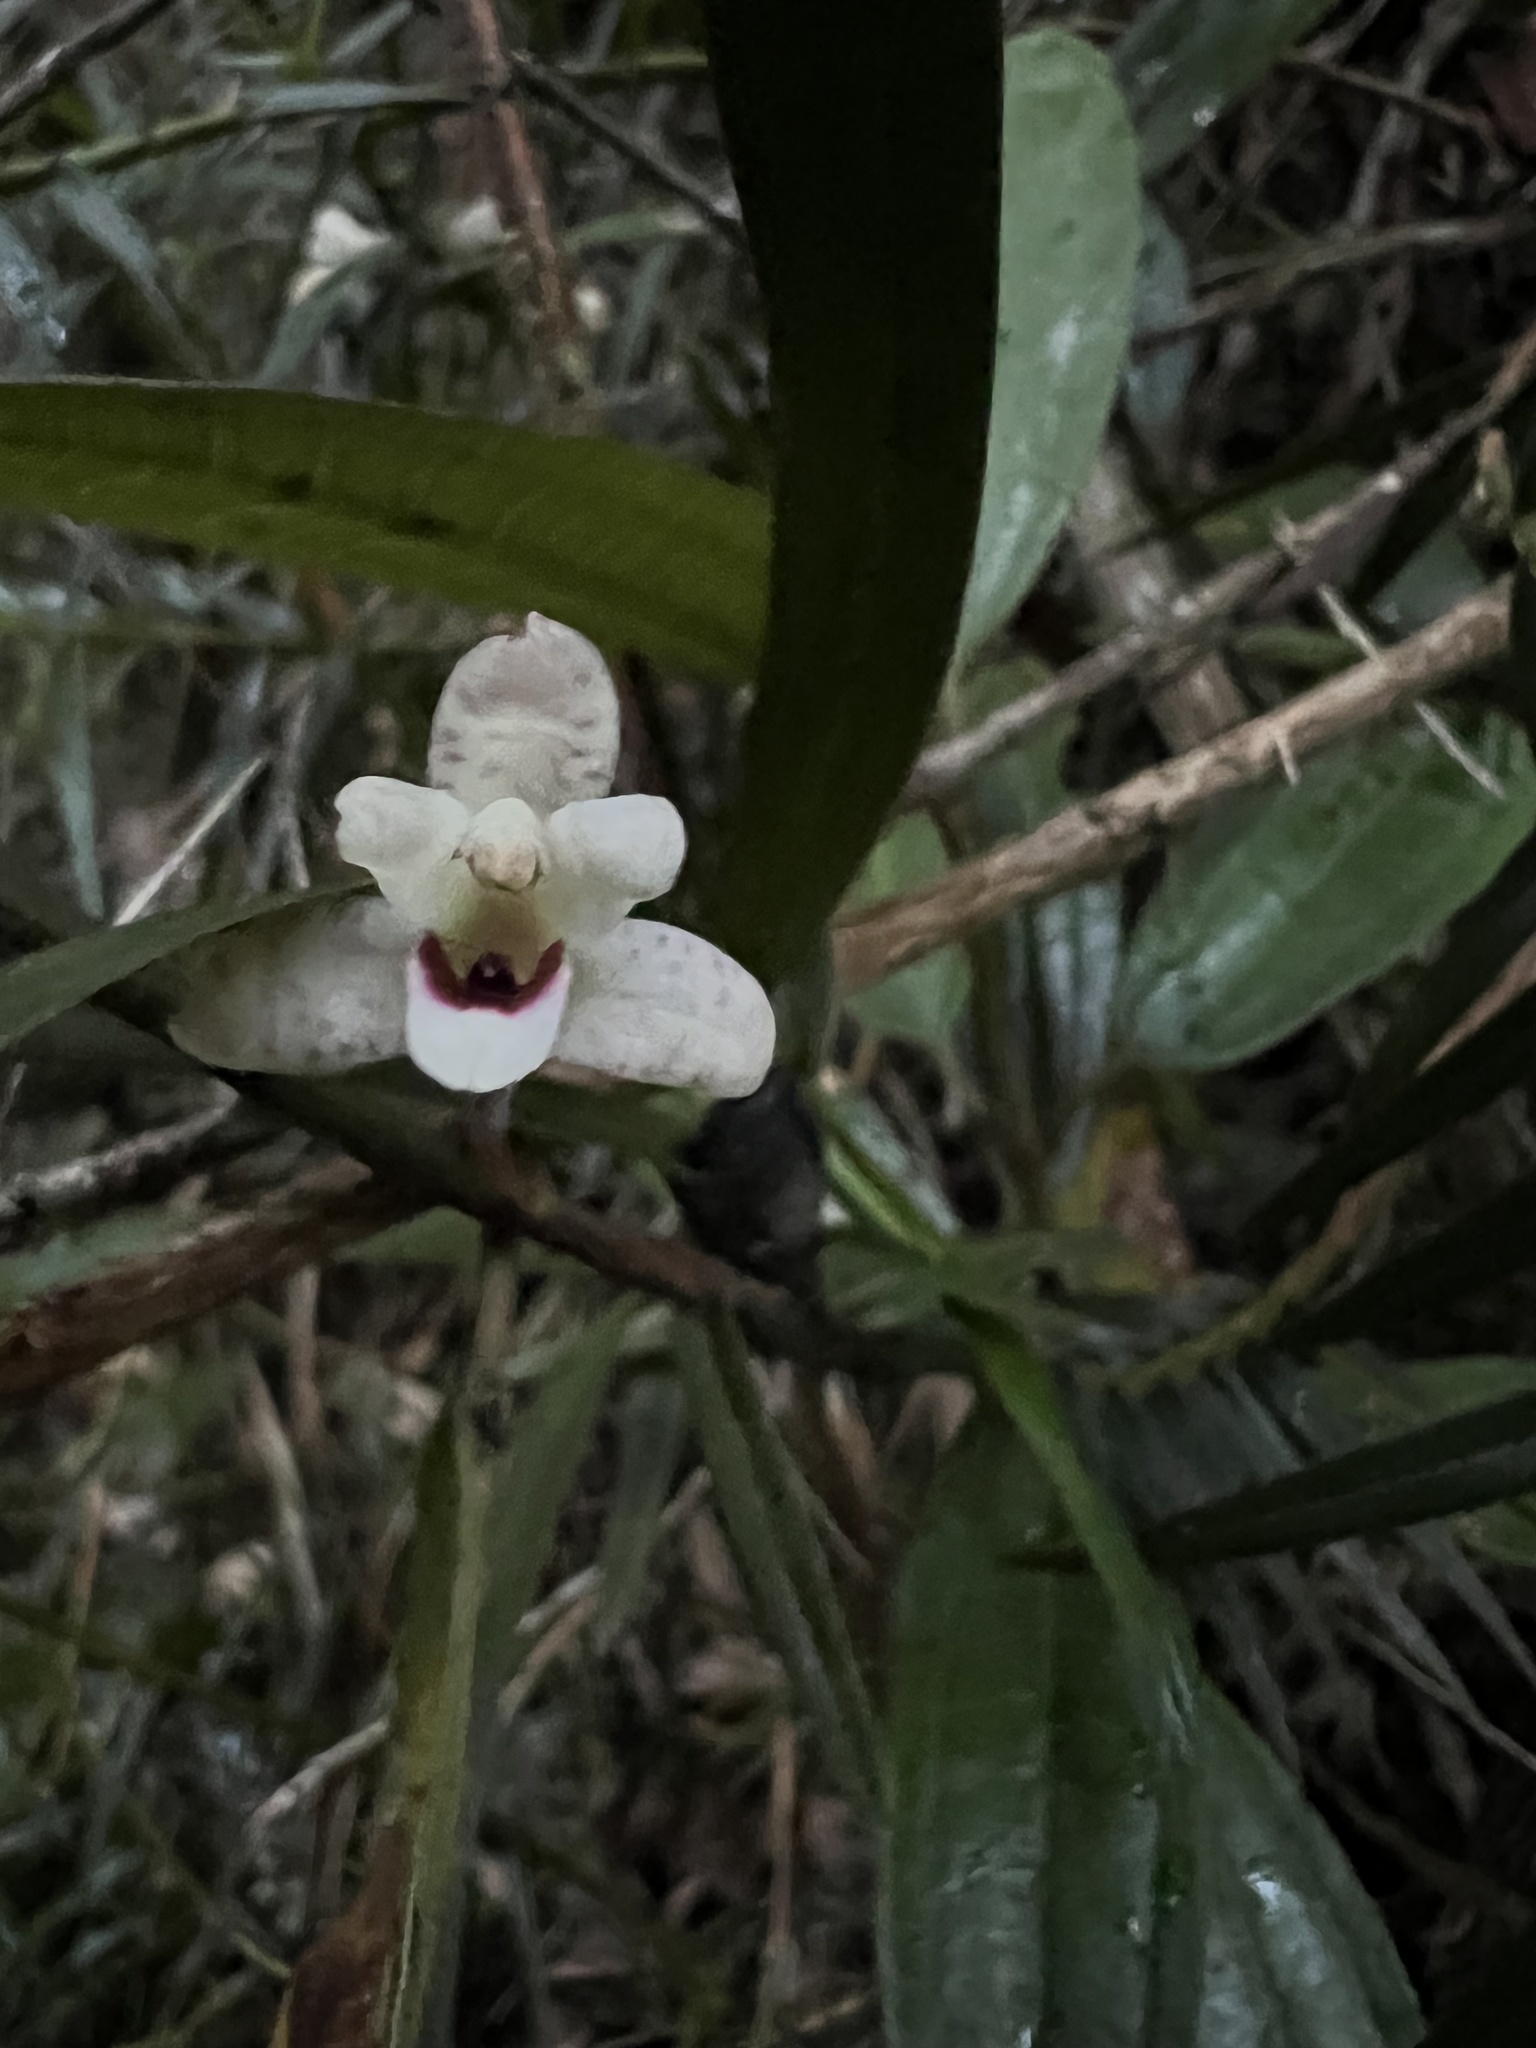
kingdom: Plantae
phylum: Tracheophyta
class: Liliopsida
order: Asparagales
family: Orchidaceae
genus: Maxillaria
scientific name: Maxillaria lawrenceana
